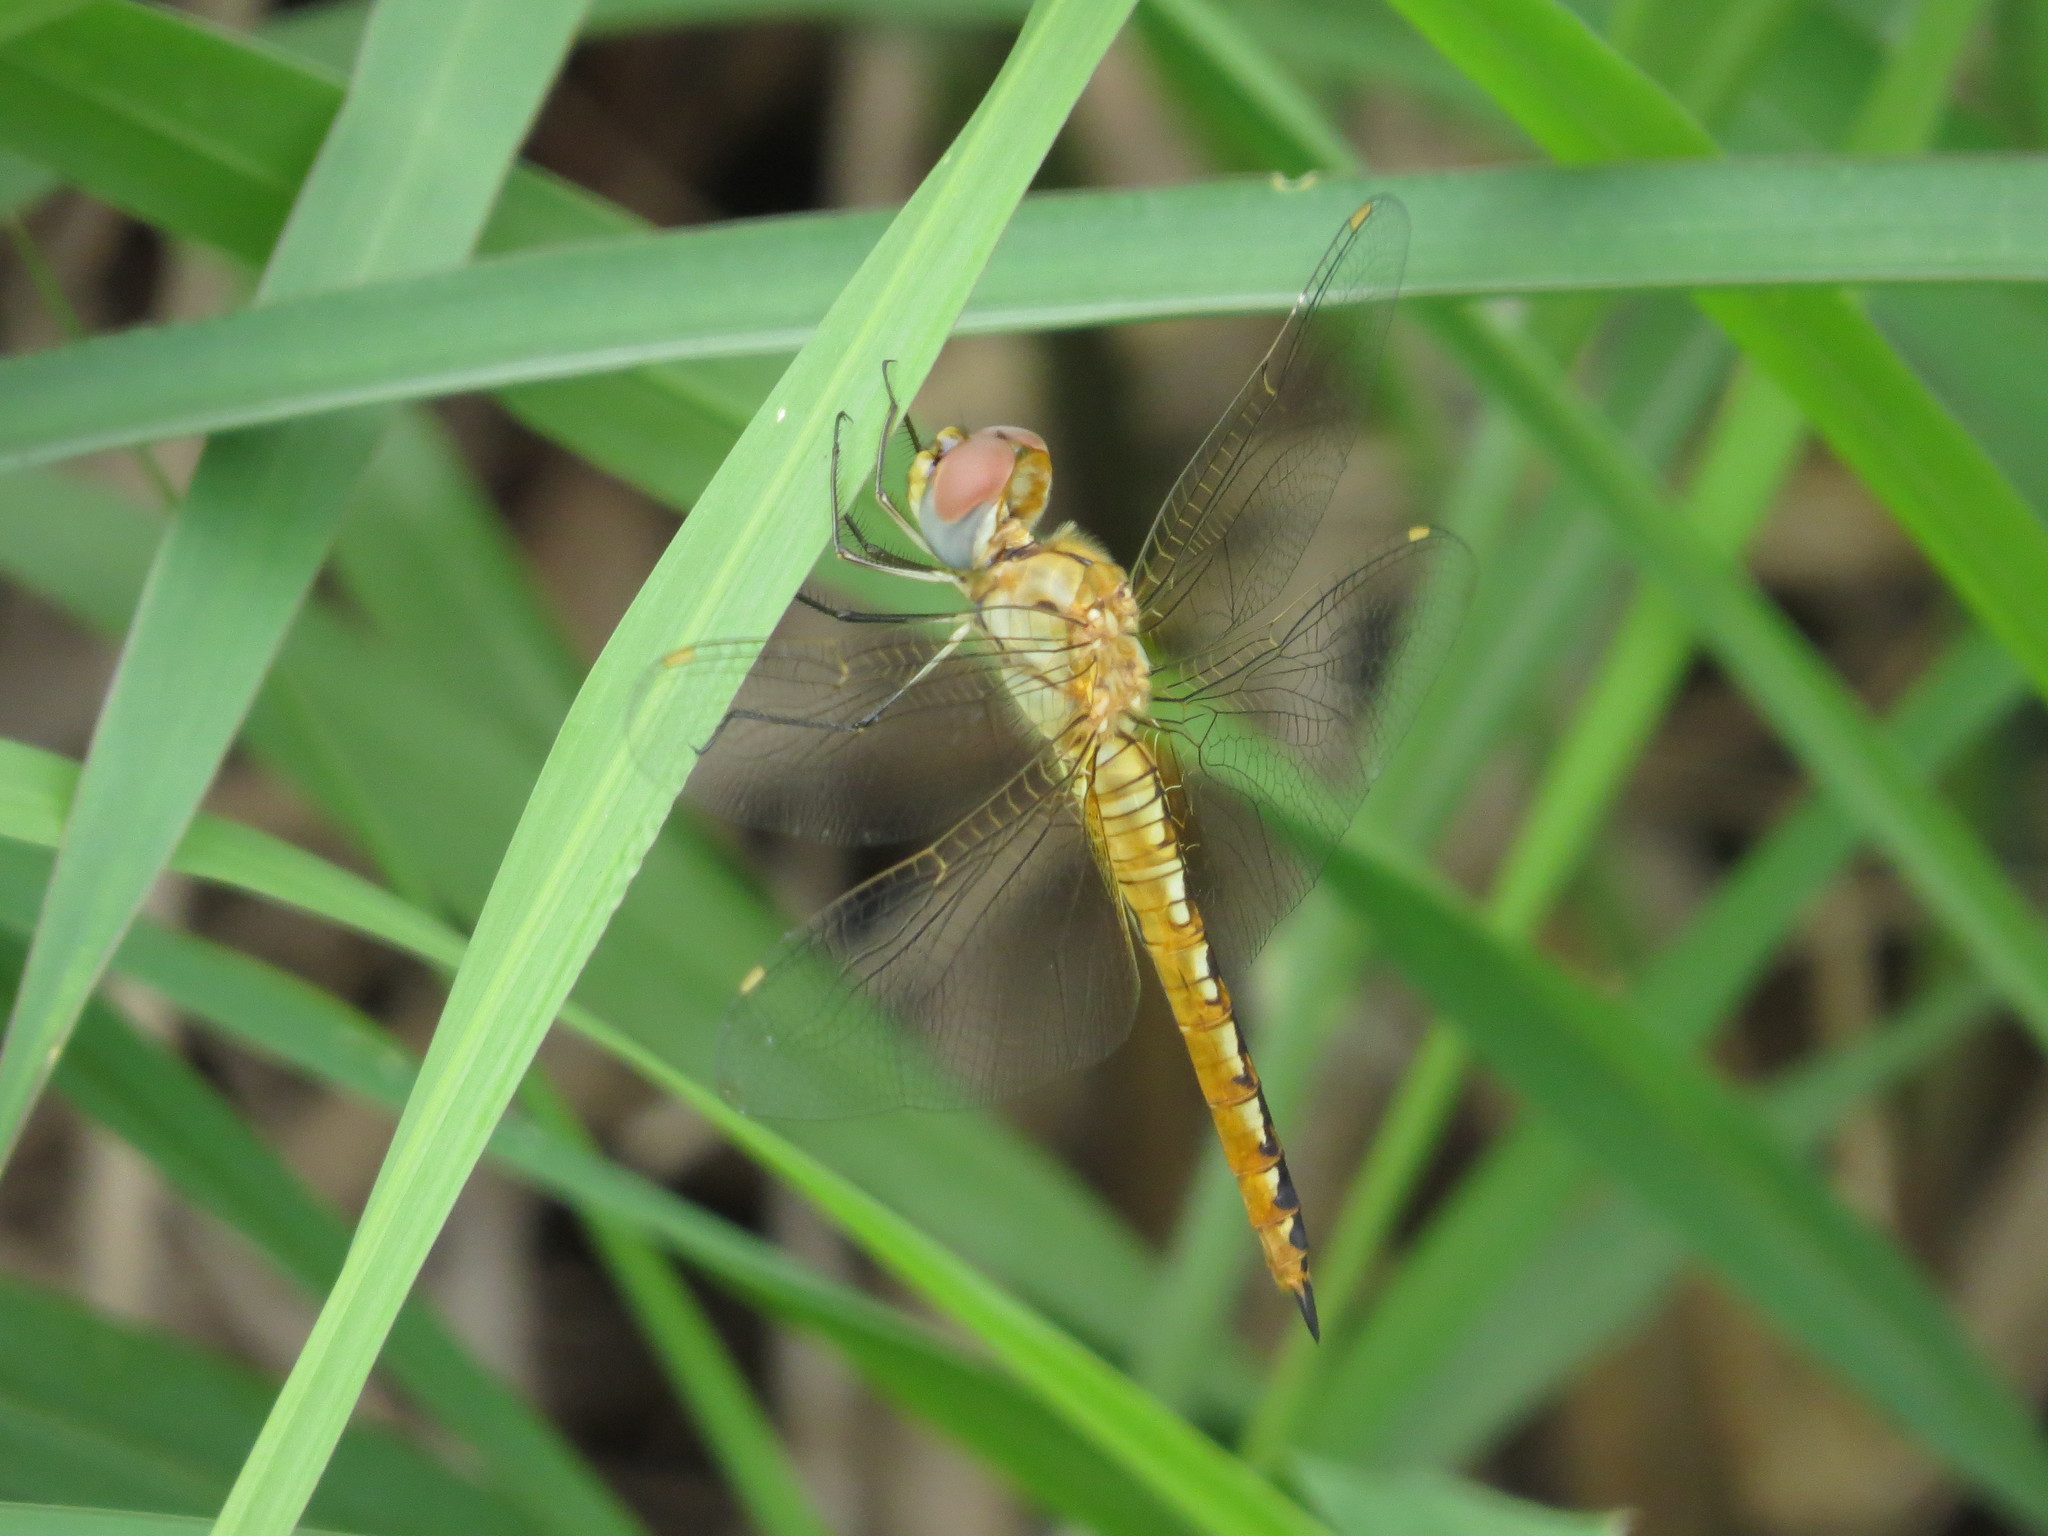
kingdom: Animalia
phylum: Arthropoda
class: Insecta
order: Odonata
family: Libellulidae
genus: Pantala
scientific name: Pantala flavescens
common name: Wandering glider
